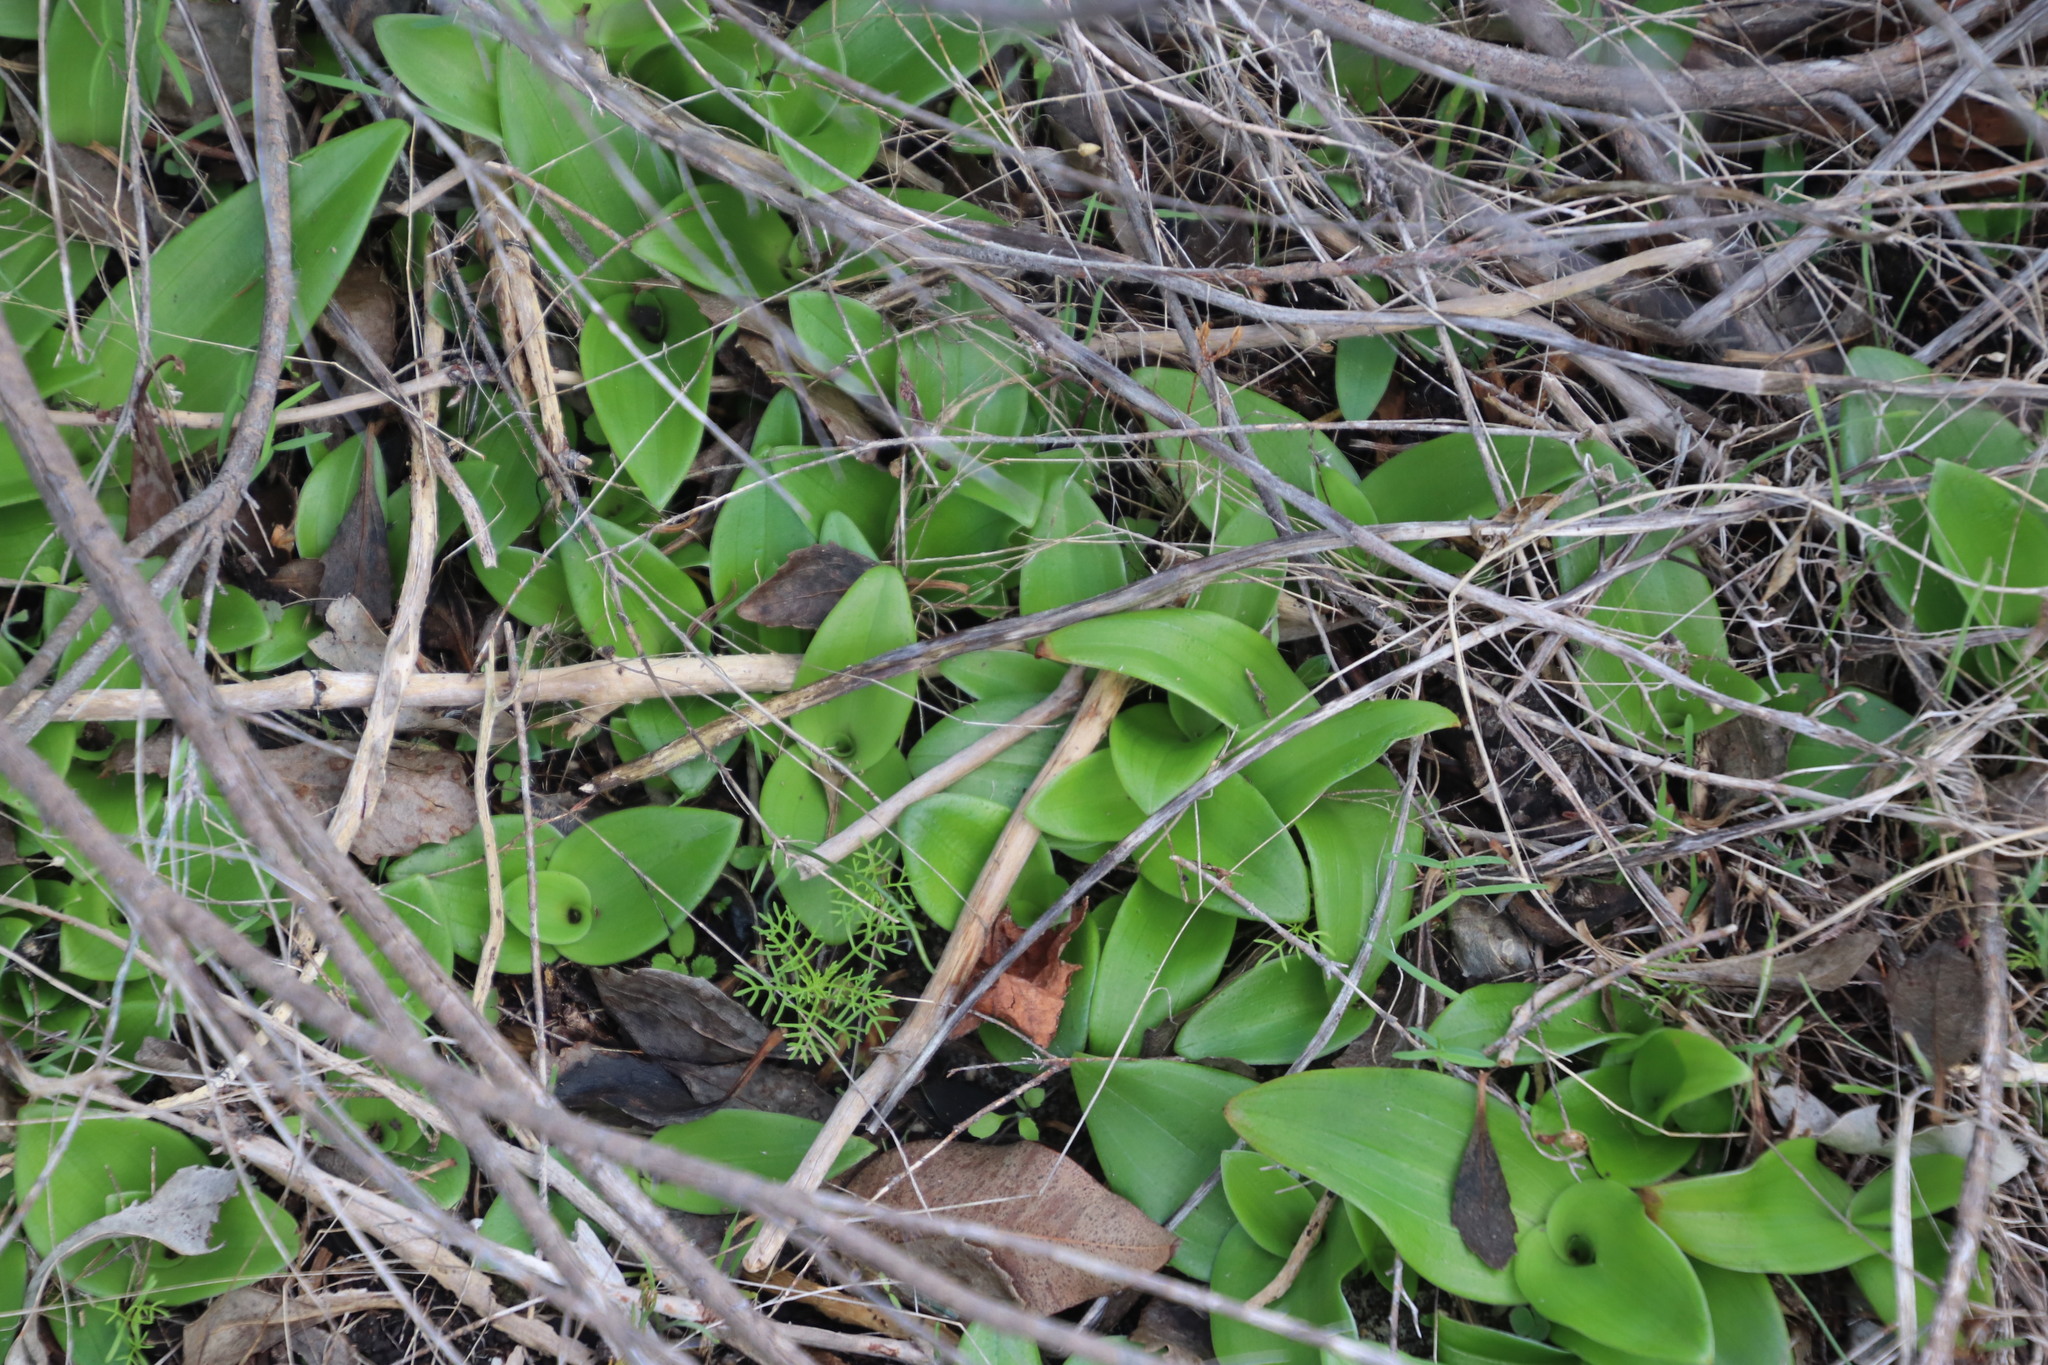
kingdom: Plantae
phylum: Tracheophyta
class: Liliopsida
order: Asparagales
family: Orchidaceae
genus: Satyrium
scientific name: Satyrium odorum
